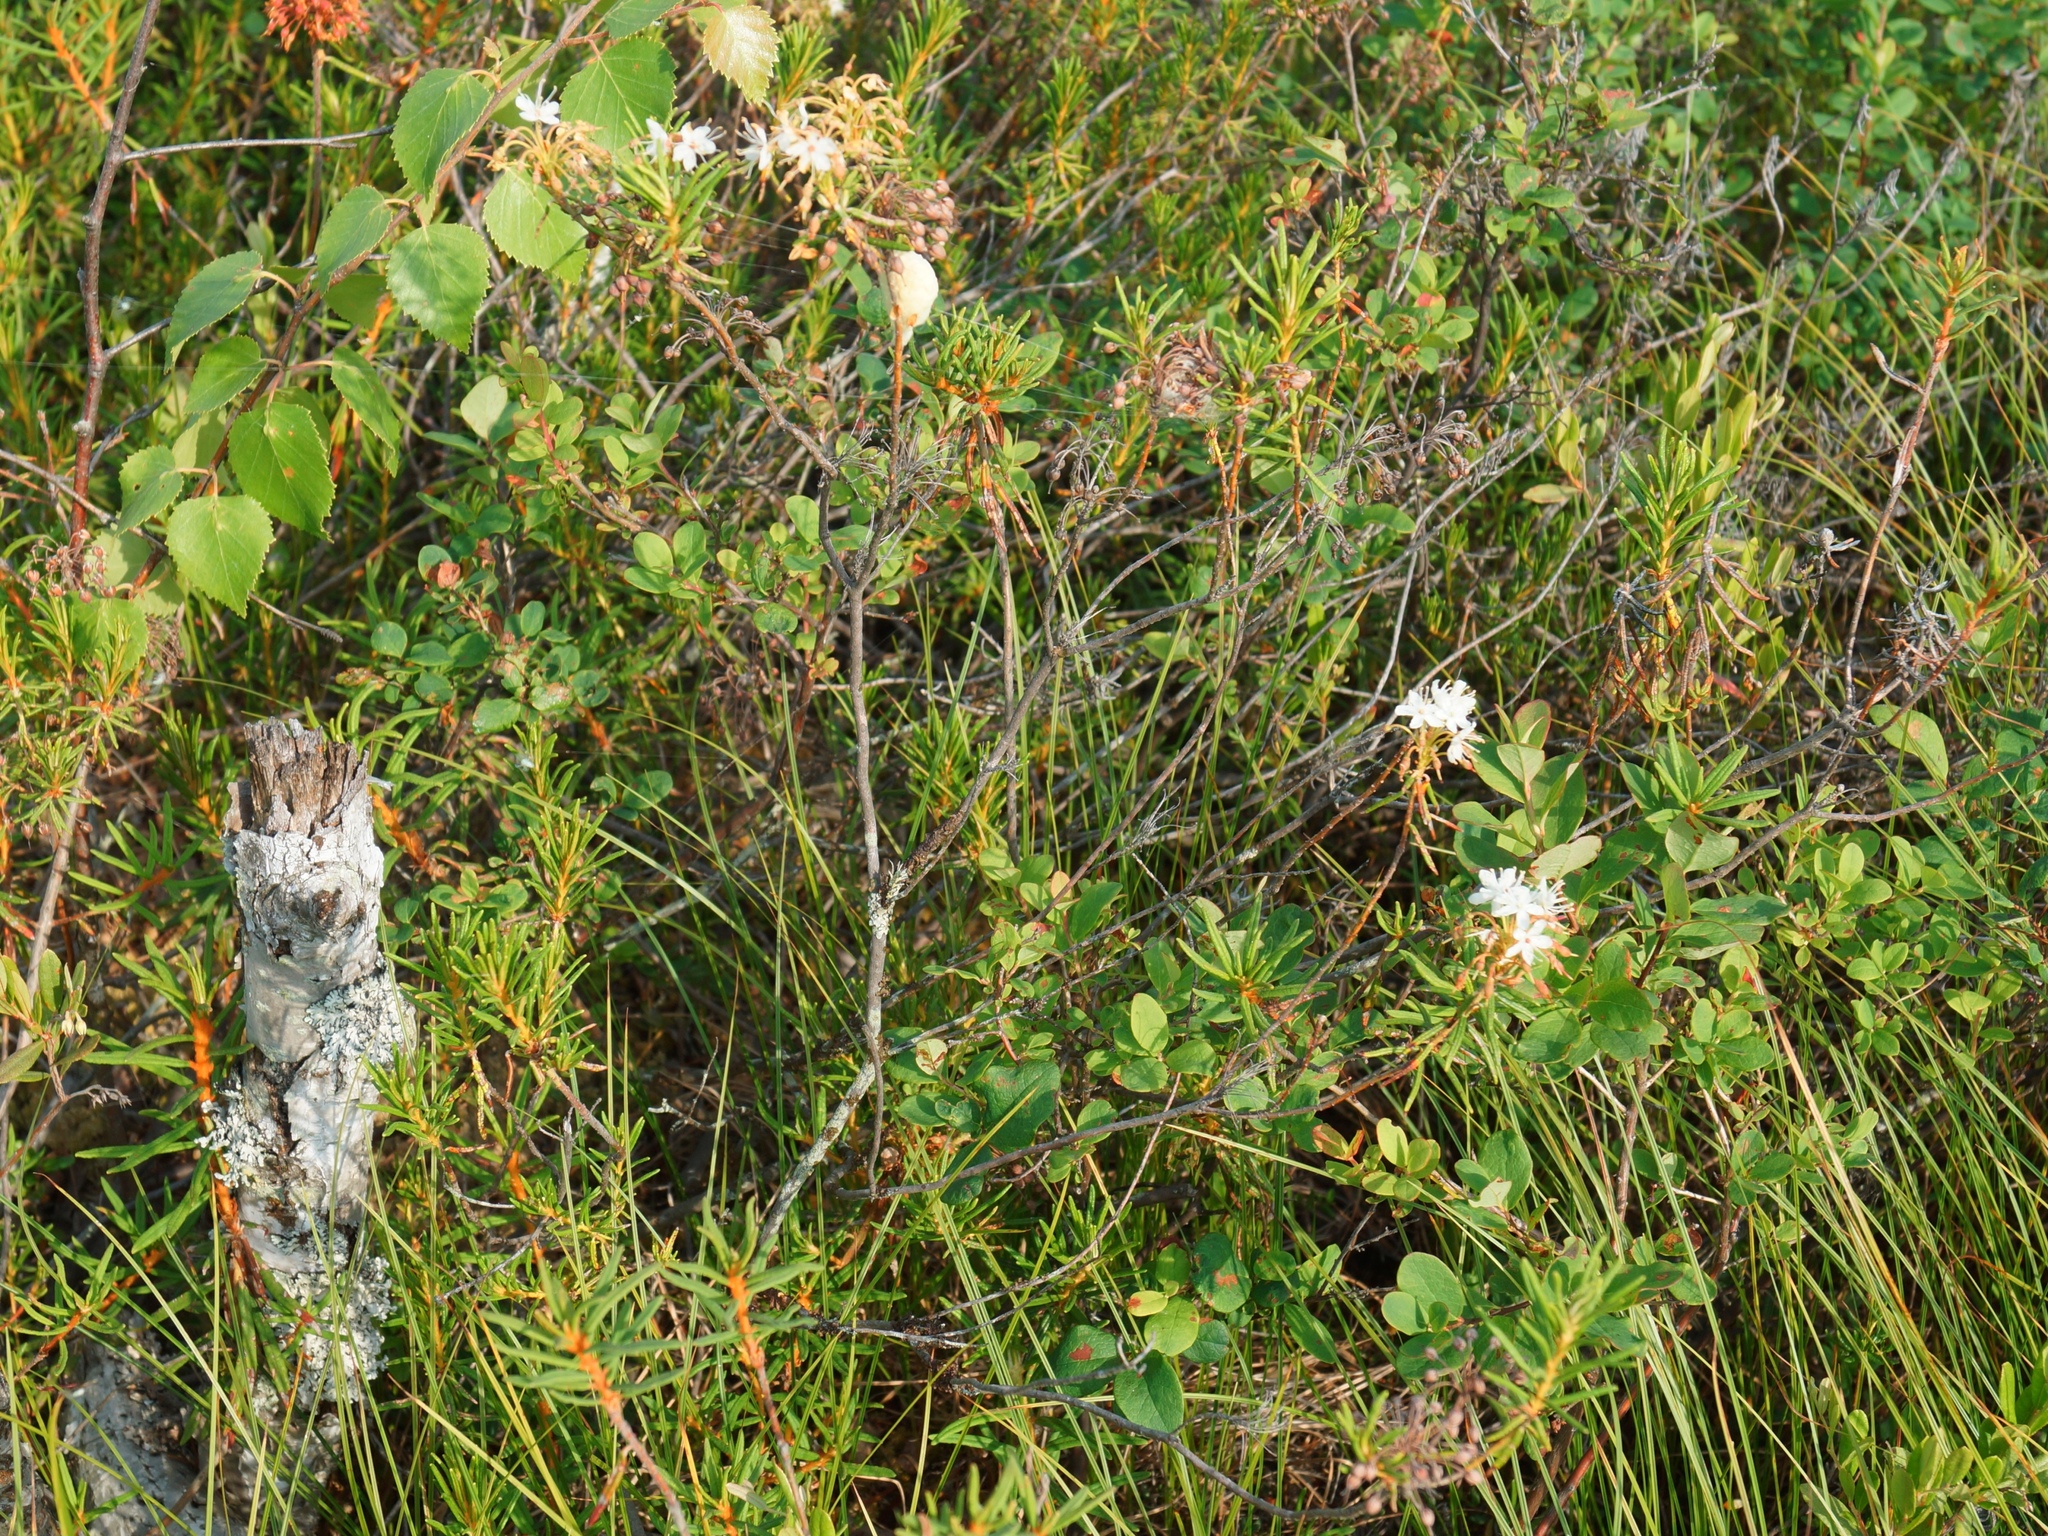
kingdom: Plantae
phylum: Tracheophyta
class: Magnoliopsida
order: Ericales
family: Ericaceae
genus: Rhododendron
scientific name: Rhododendron tomentosum
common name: Marsh labrador tea
